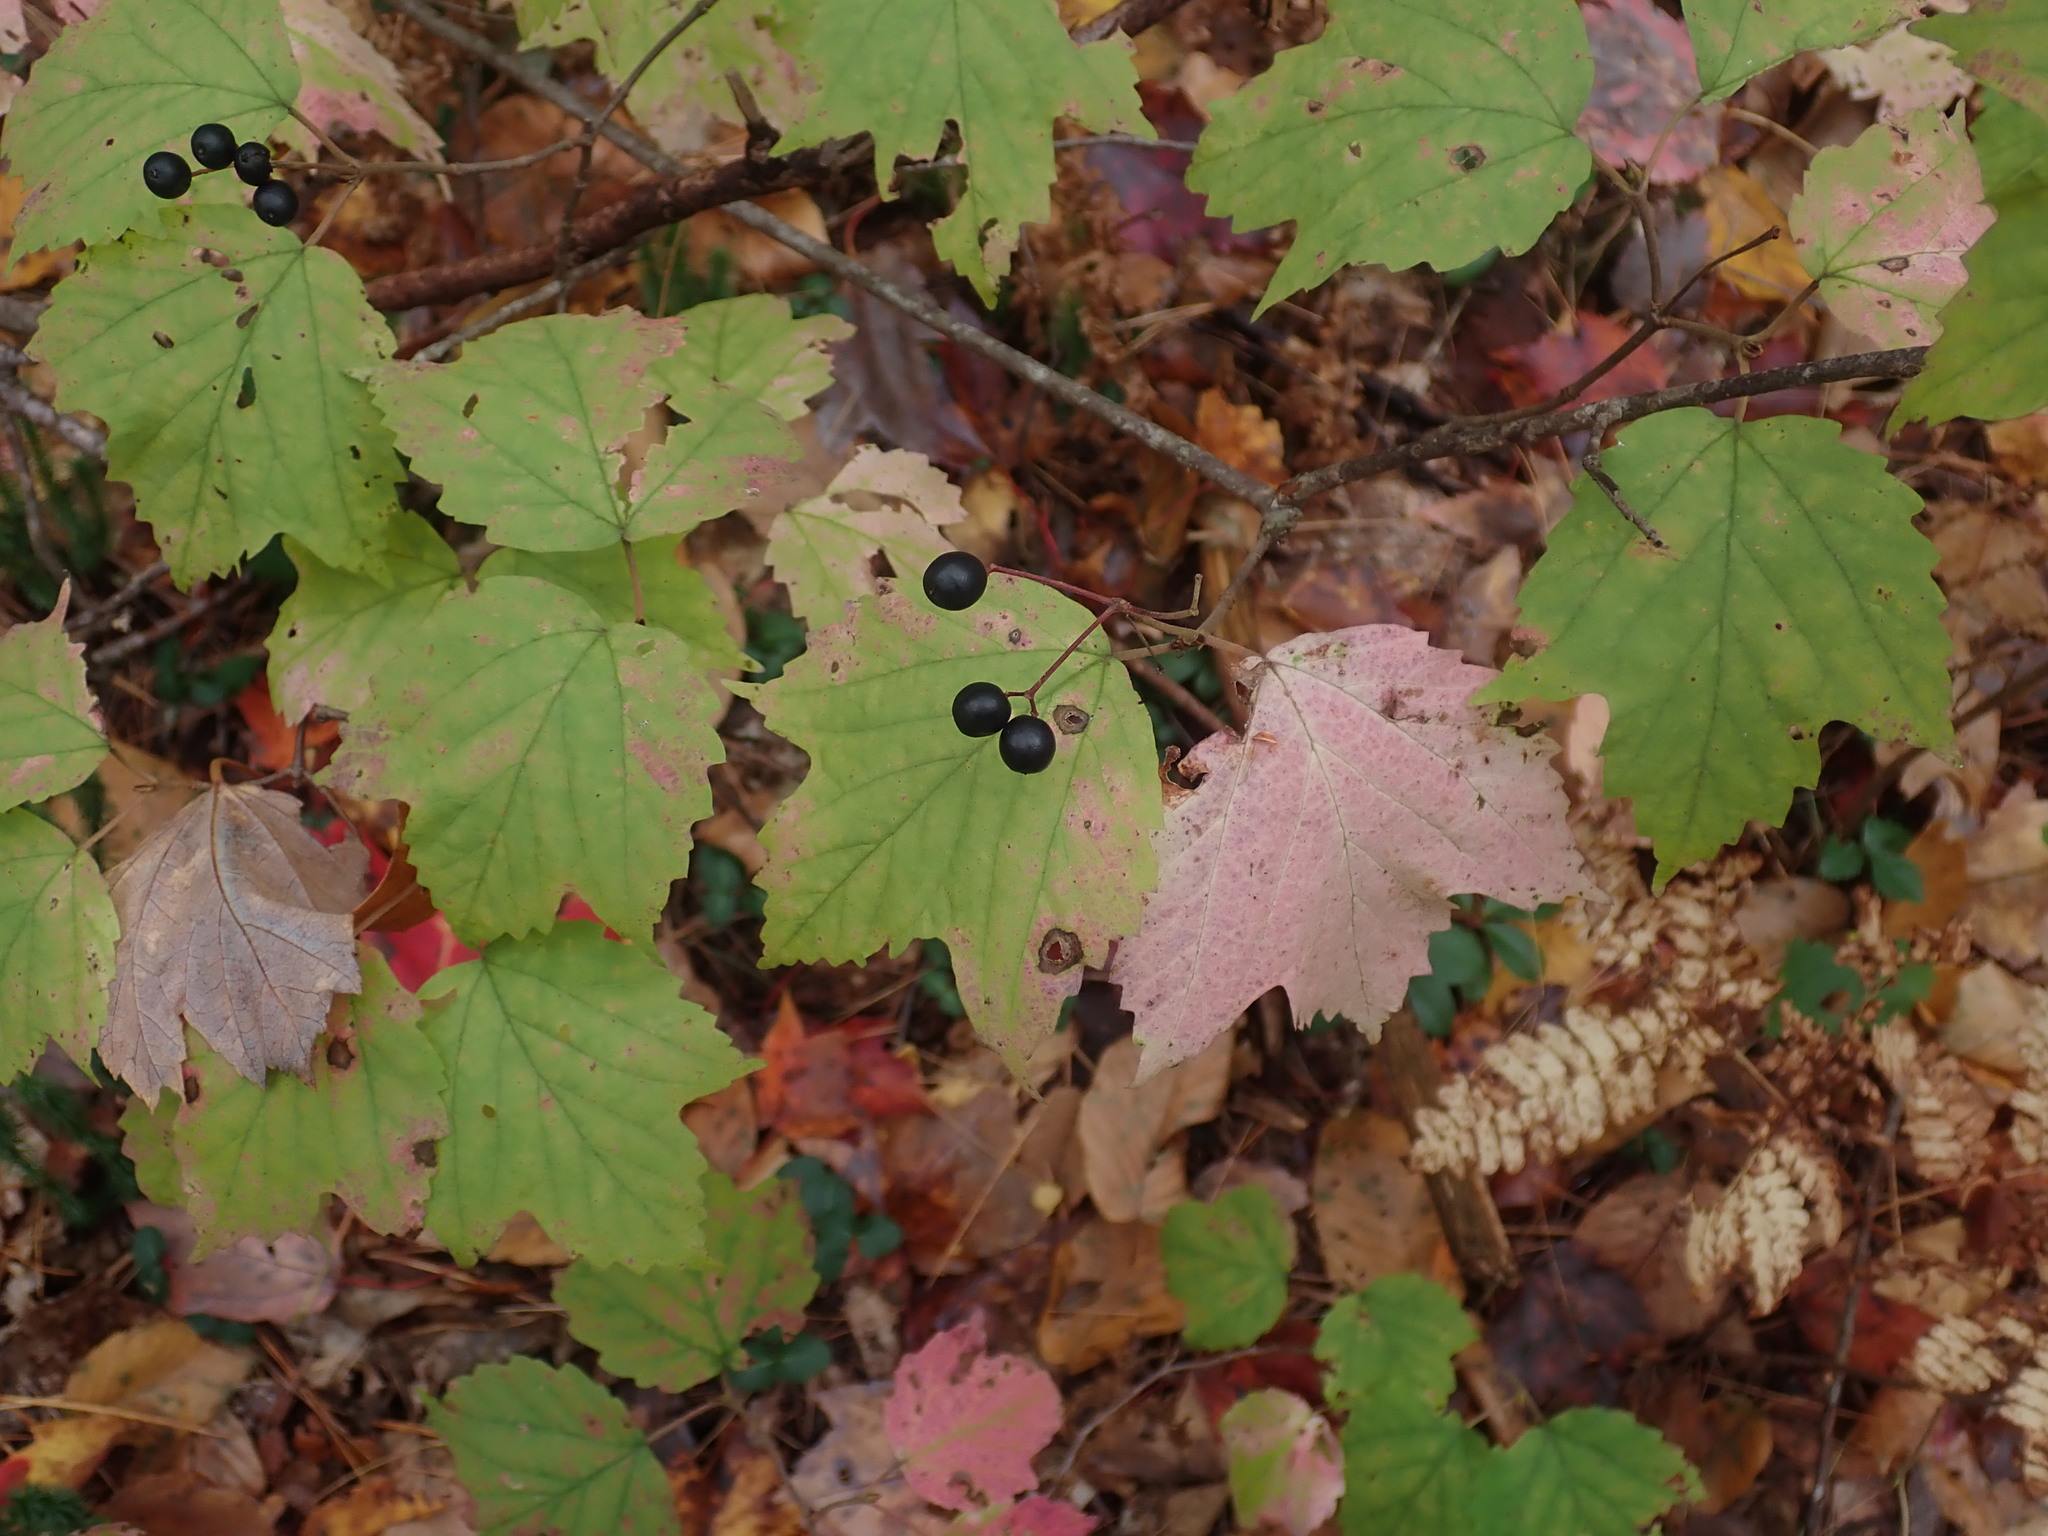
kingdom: Plantae
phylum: Tracheophyta
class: Magnoliopsida
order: Dipsacales
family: Viburnaceae
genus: Viburnum
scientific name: Viburnum acerifolium
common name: Dockmackie
